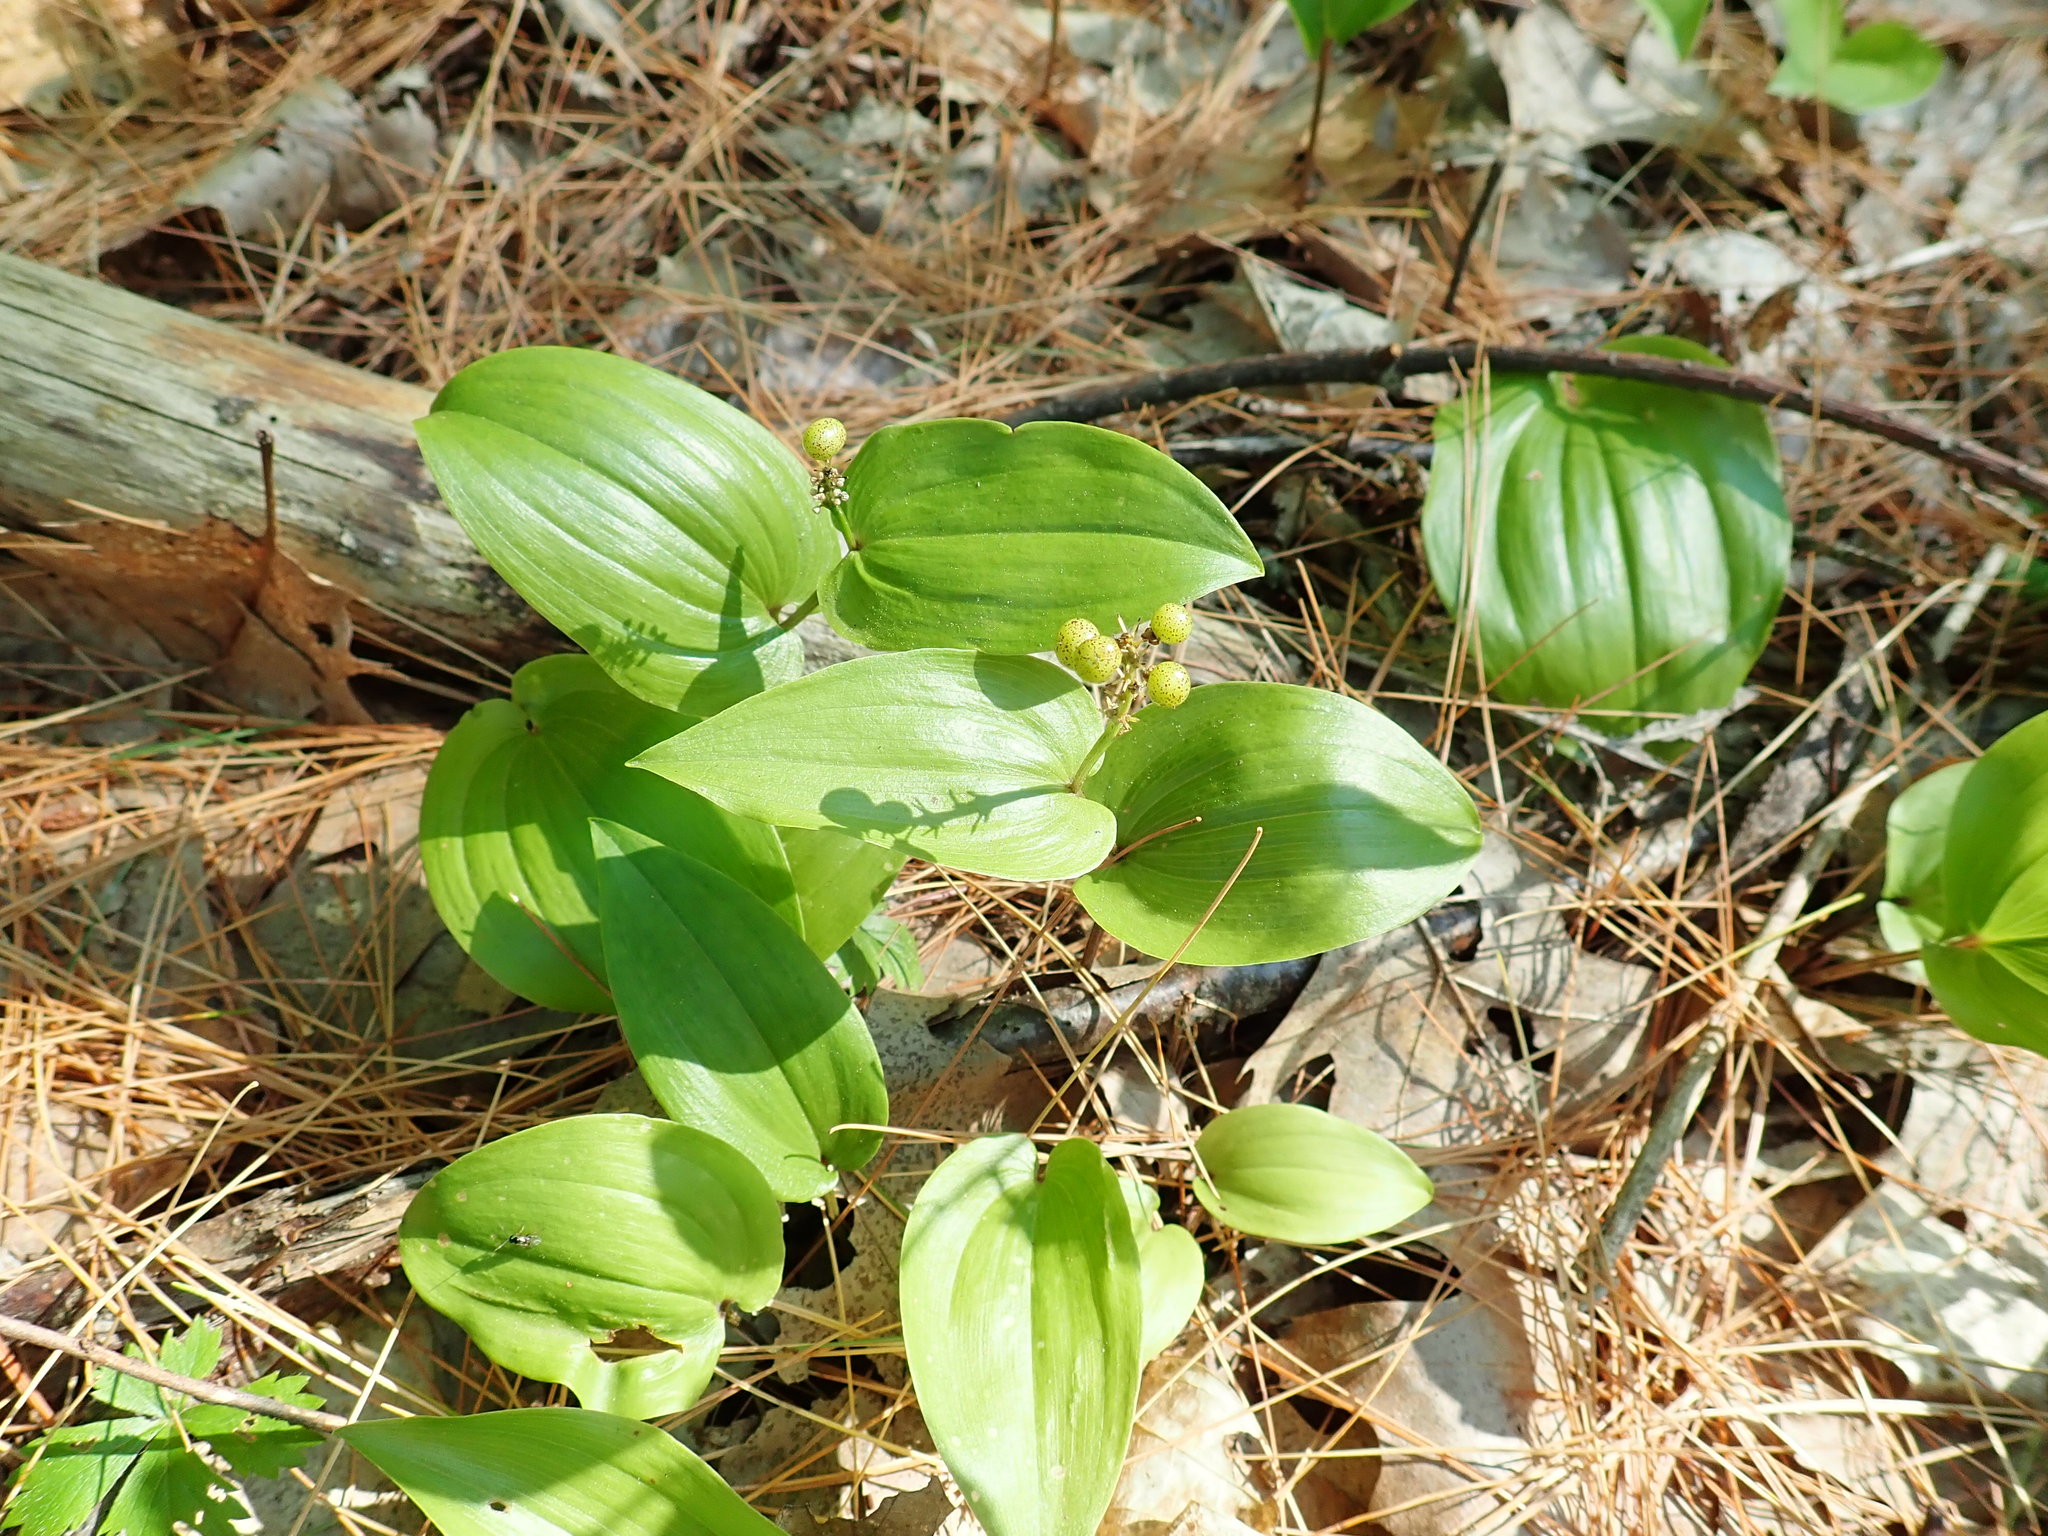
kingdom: Plantae
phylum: Tracheophyta
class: Liliopsida
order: Asparagales
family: Asparagaceae
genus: Maianthemum
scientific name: Maianthemum canadense
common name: False lily-of-the-valley
